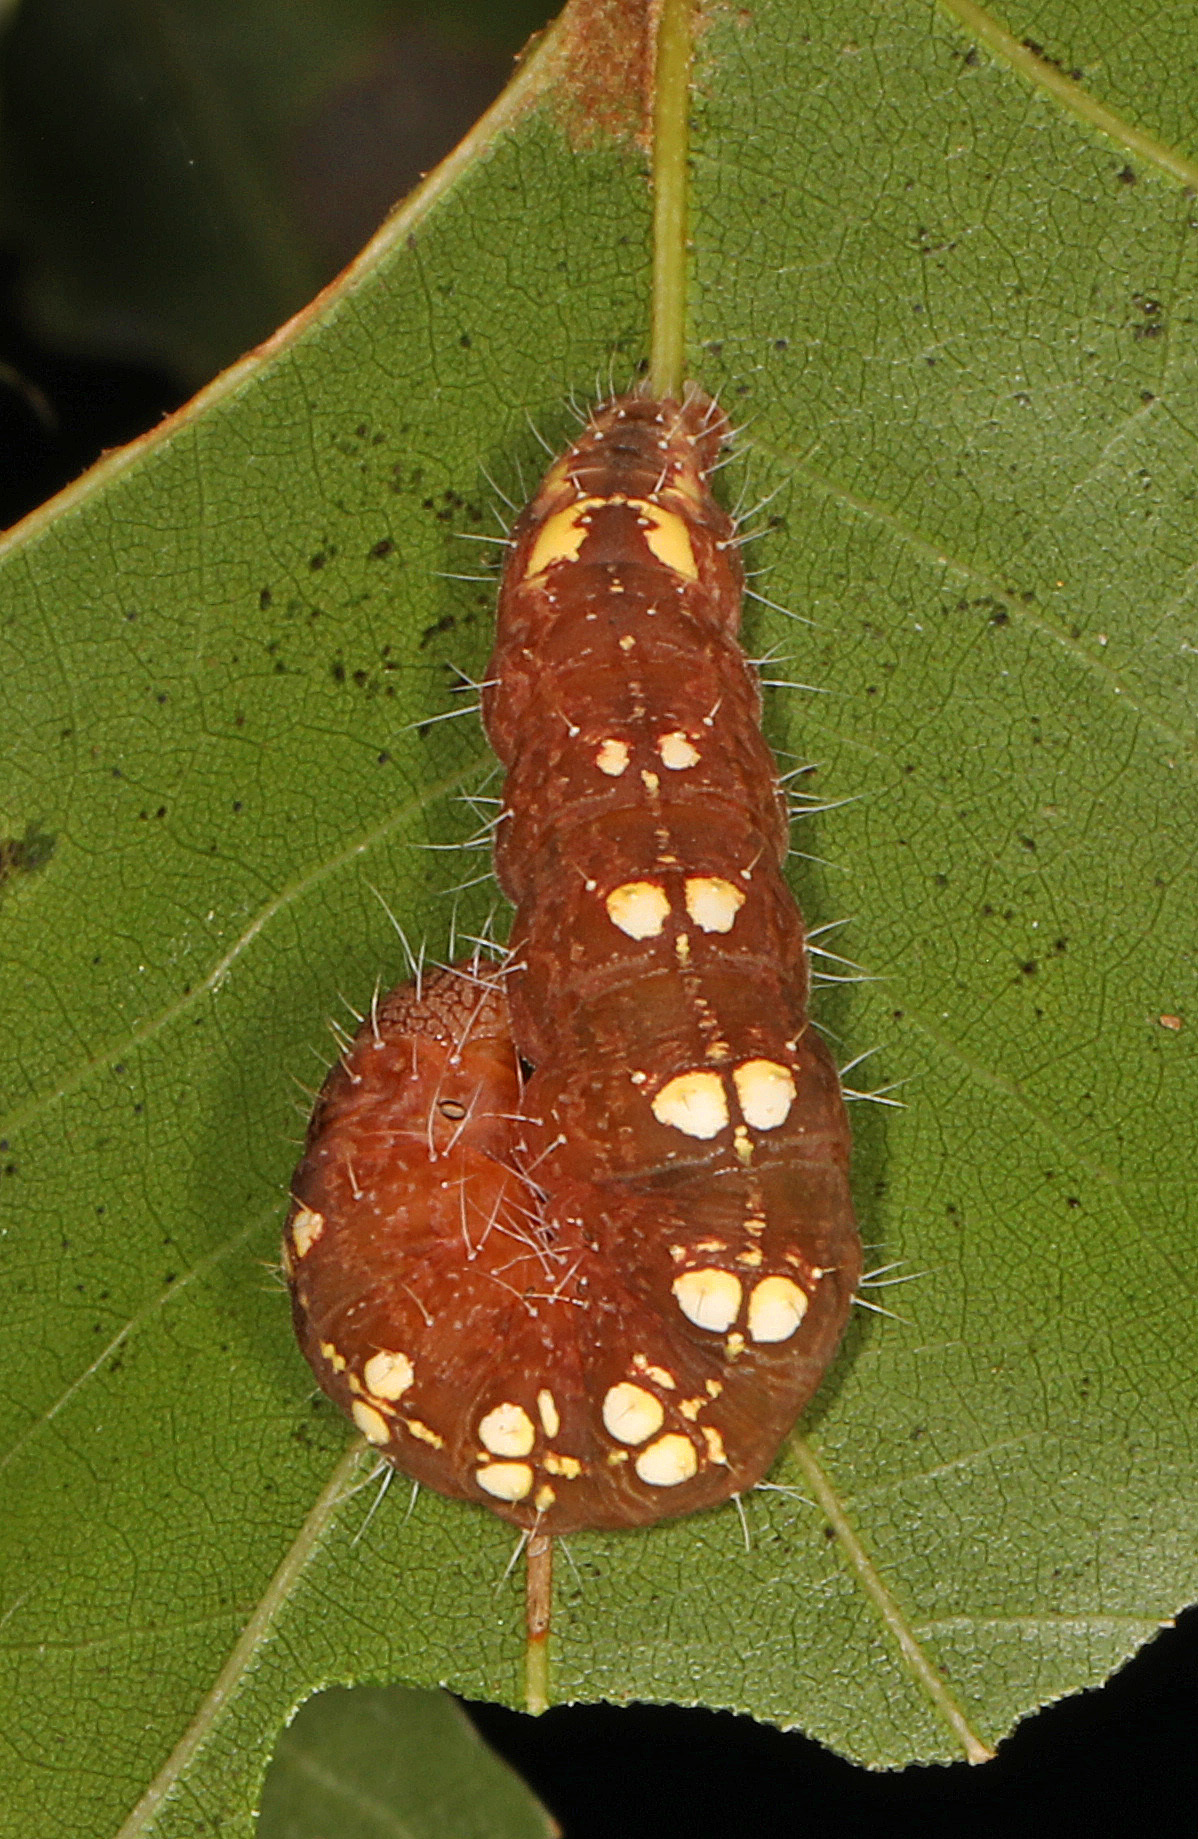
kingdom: Animalia
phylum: Arthropoda
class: Insecta
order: Lepidoptera
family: Noctuidae
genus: Acronicta
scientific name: Acronicta increta
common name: Eclipsed oak dagger
